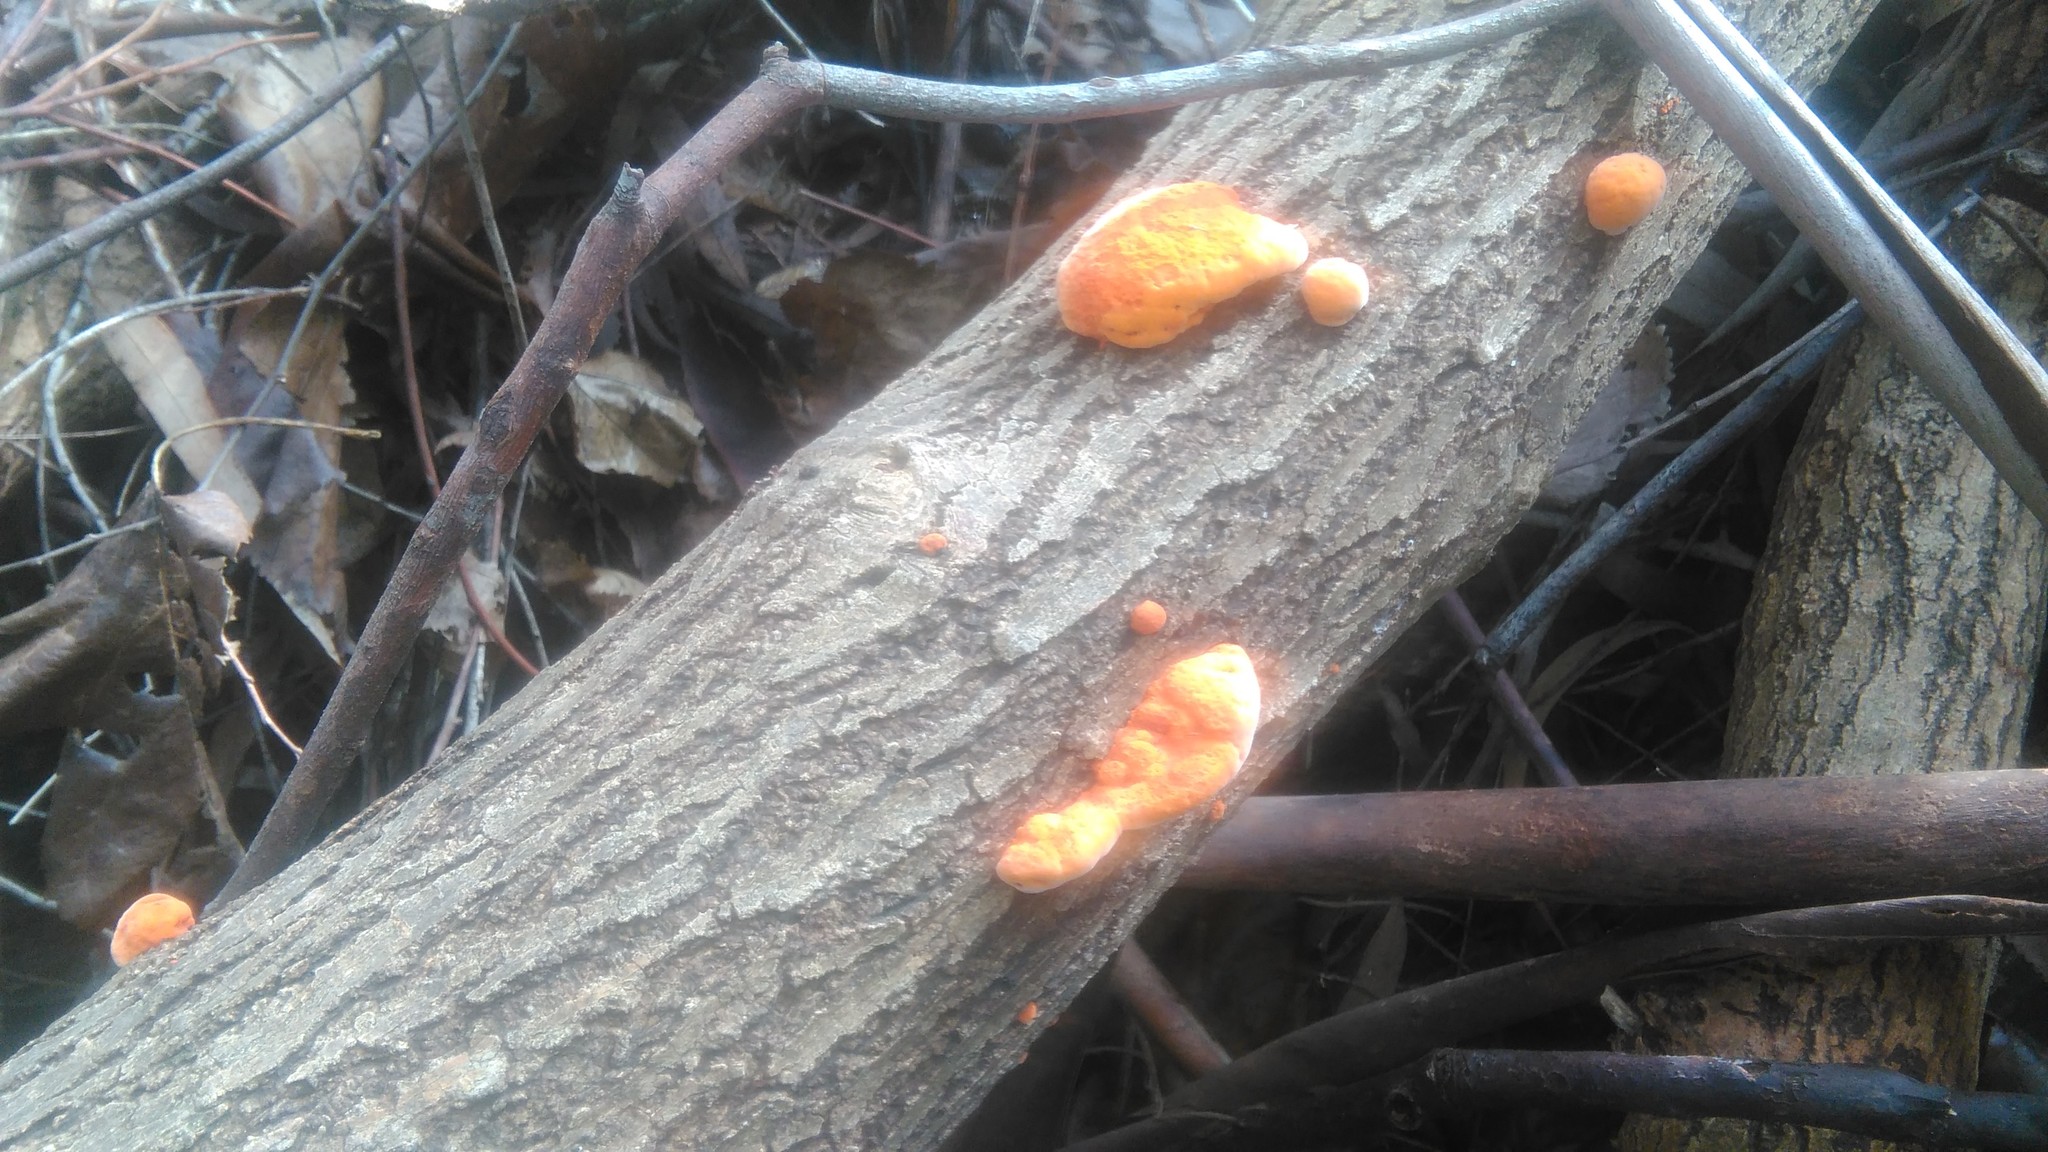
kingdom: Fungi
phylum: Basidiomycota
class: Agaricomycetes
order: Polyporales
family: Polyporaceae
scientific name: Polyporaceae
